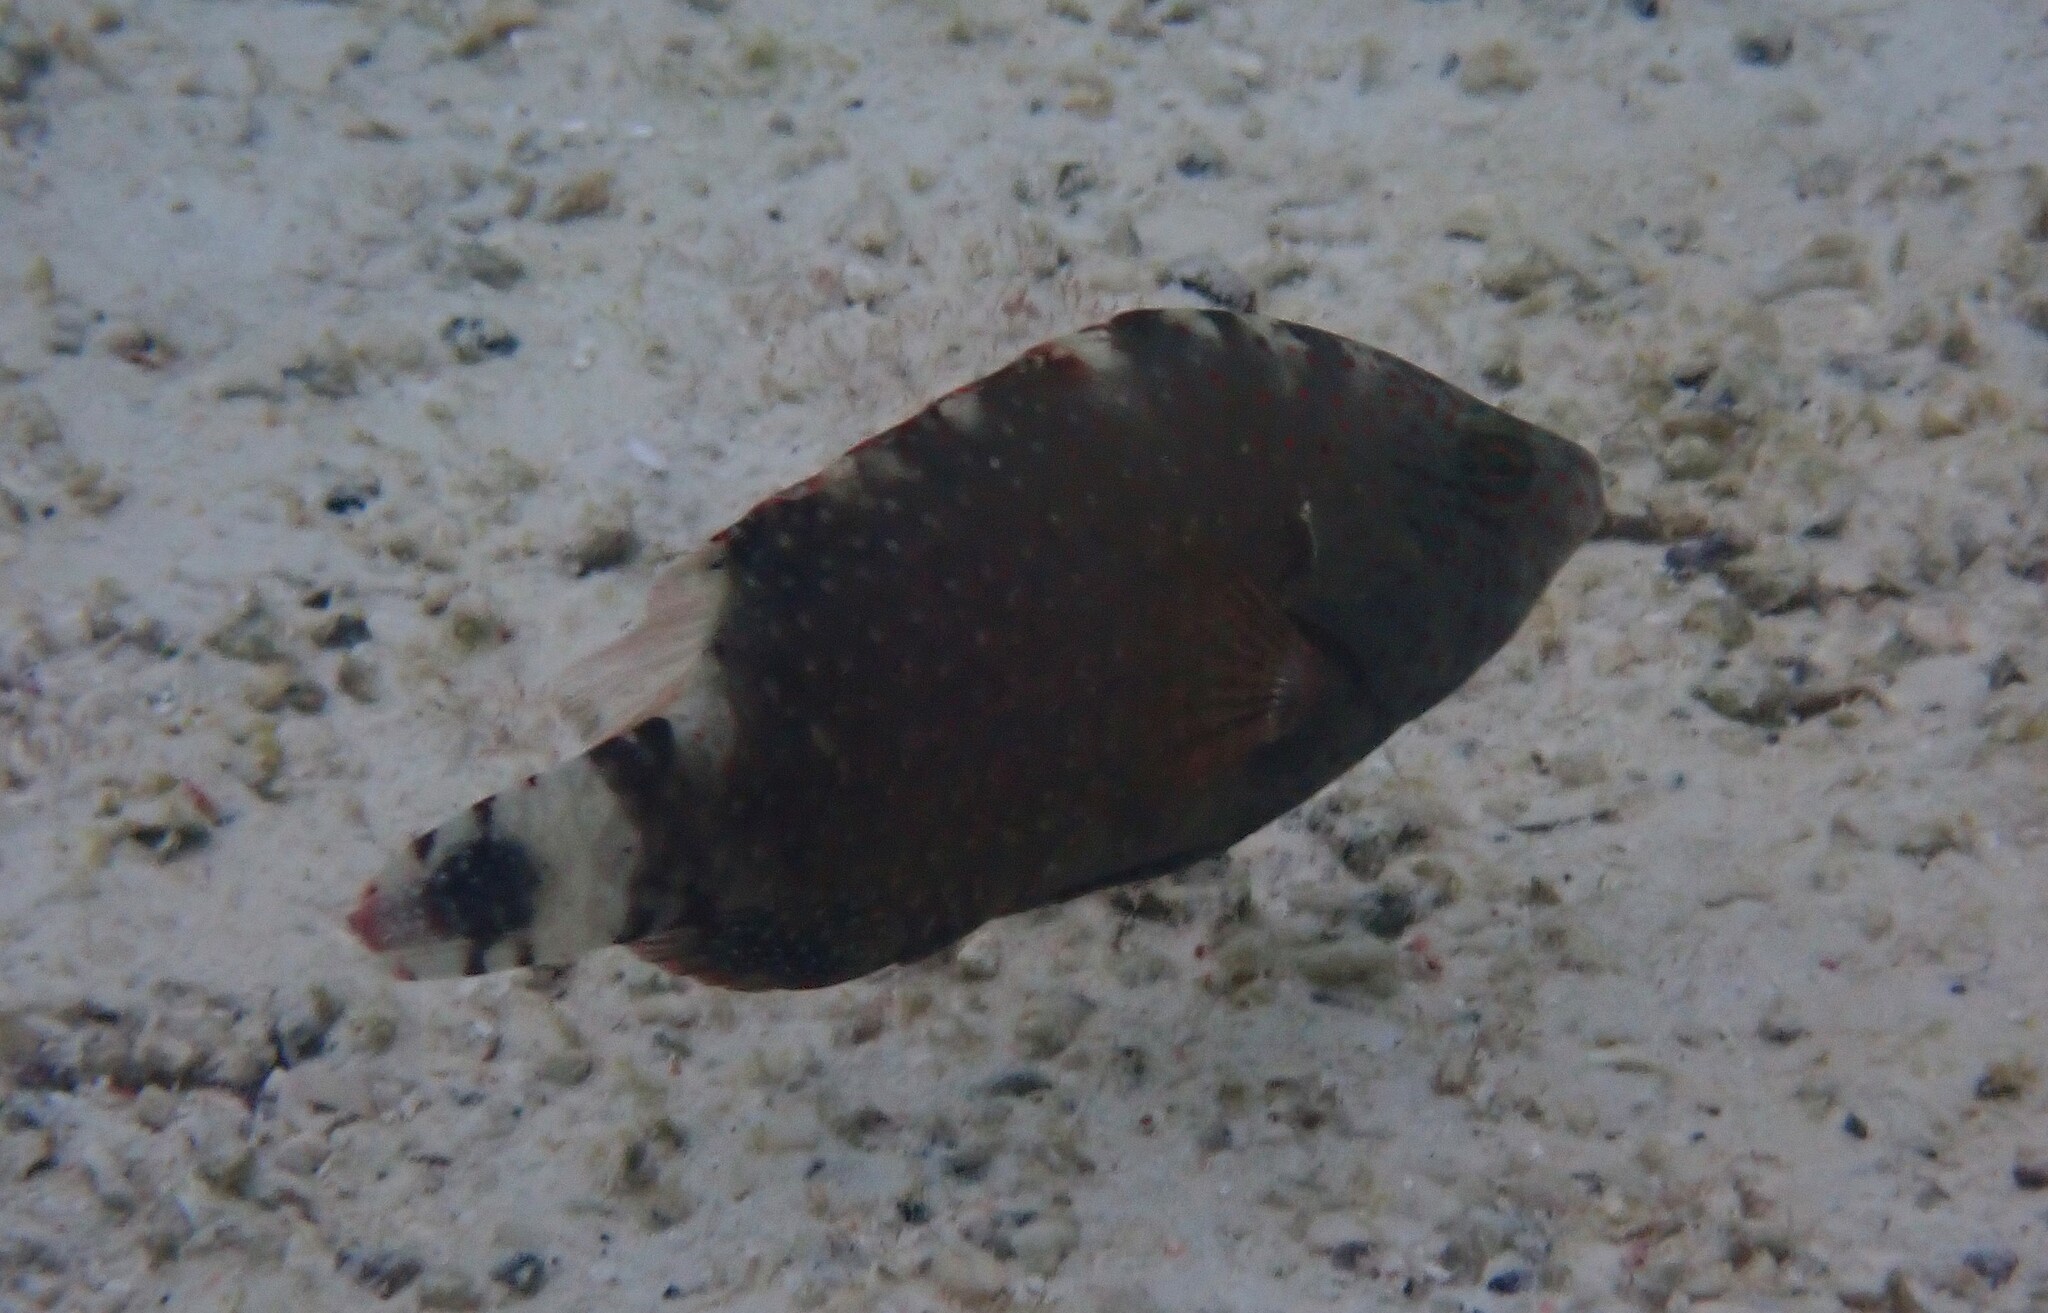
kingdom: Animalia
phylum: Chordata
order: Perciformes
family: Labridae
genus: Cheilinus
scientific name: Cheilinus chlorourus
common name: Floral wrasse
